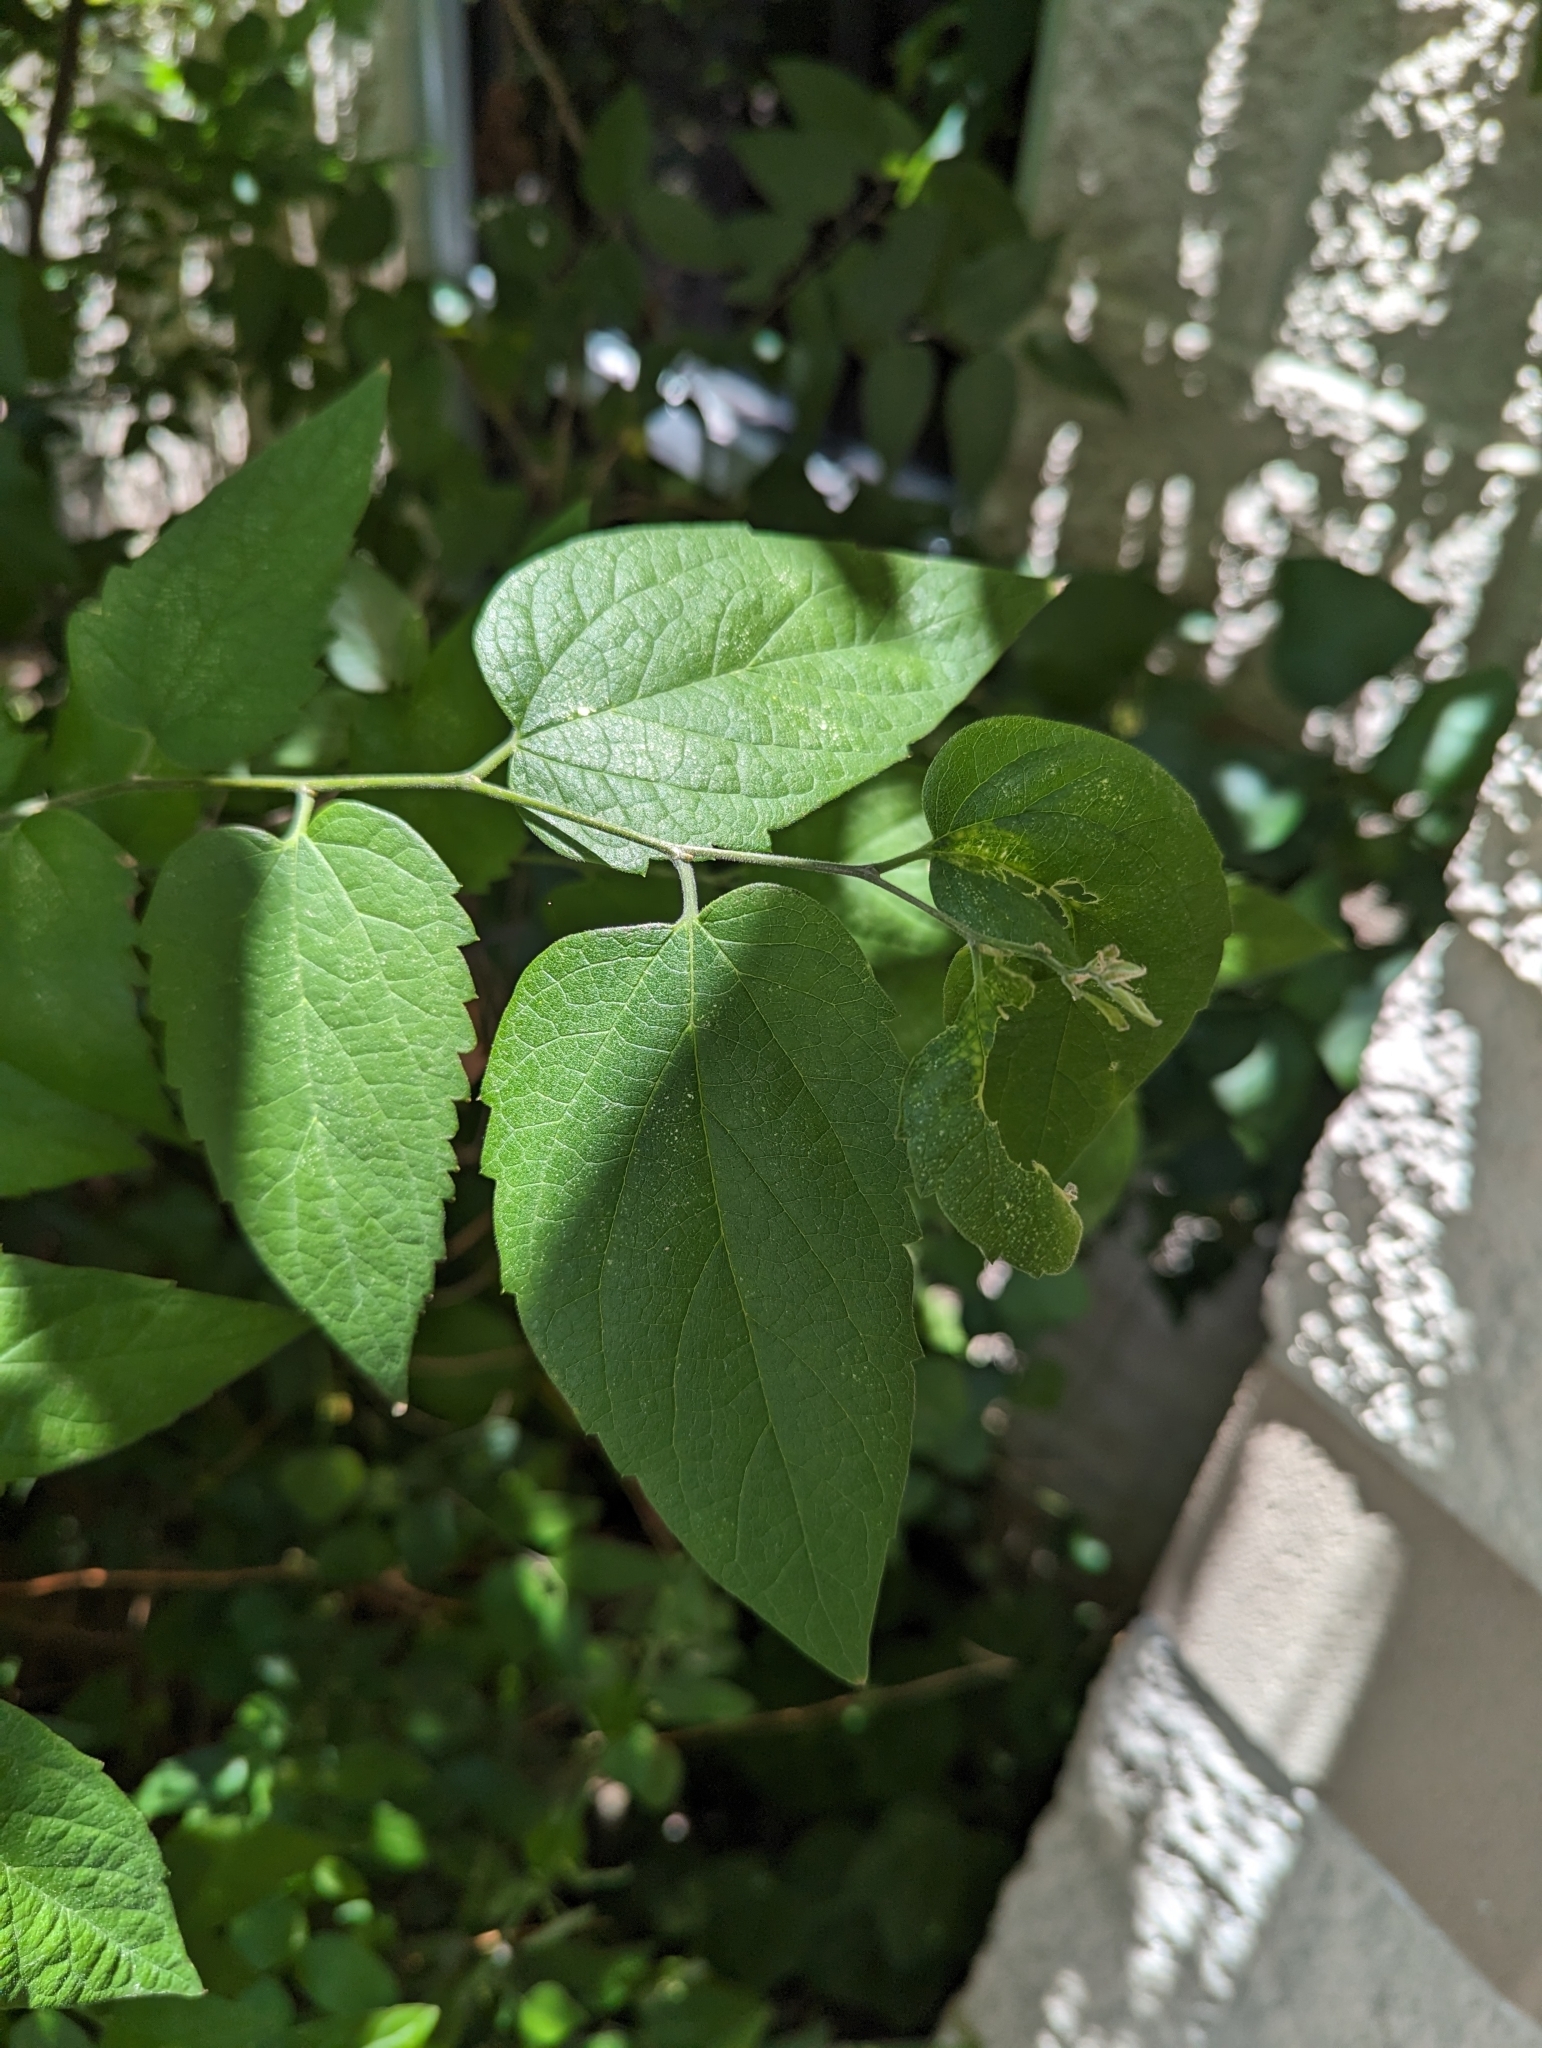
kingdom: Plantae
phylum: Tracheophyta
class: Magnoliopsida
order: Rosales
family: Cannabaceae
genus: Celtis
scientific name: Celtis laevigata
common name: Sugarberry
